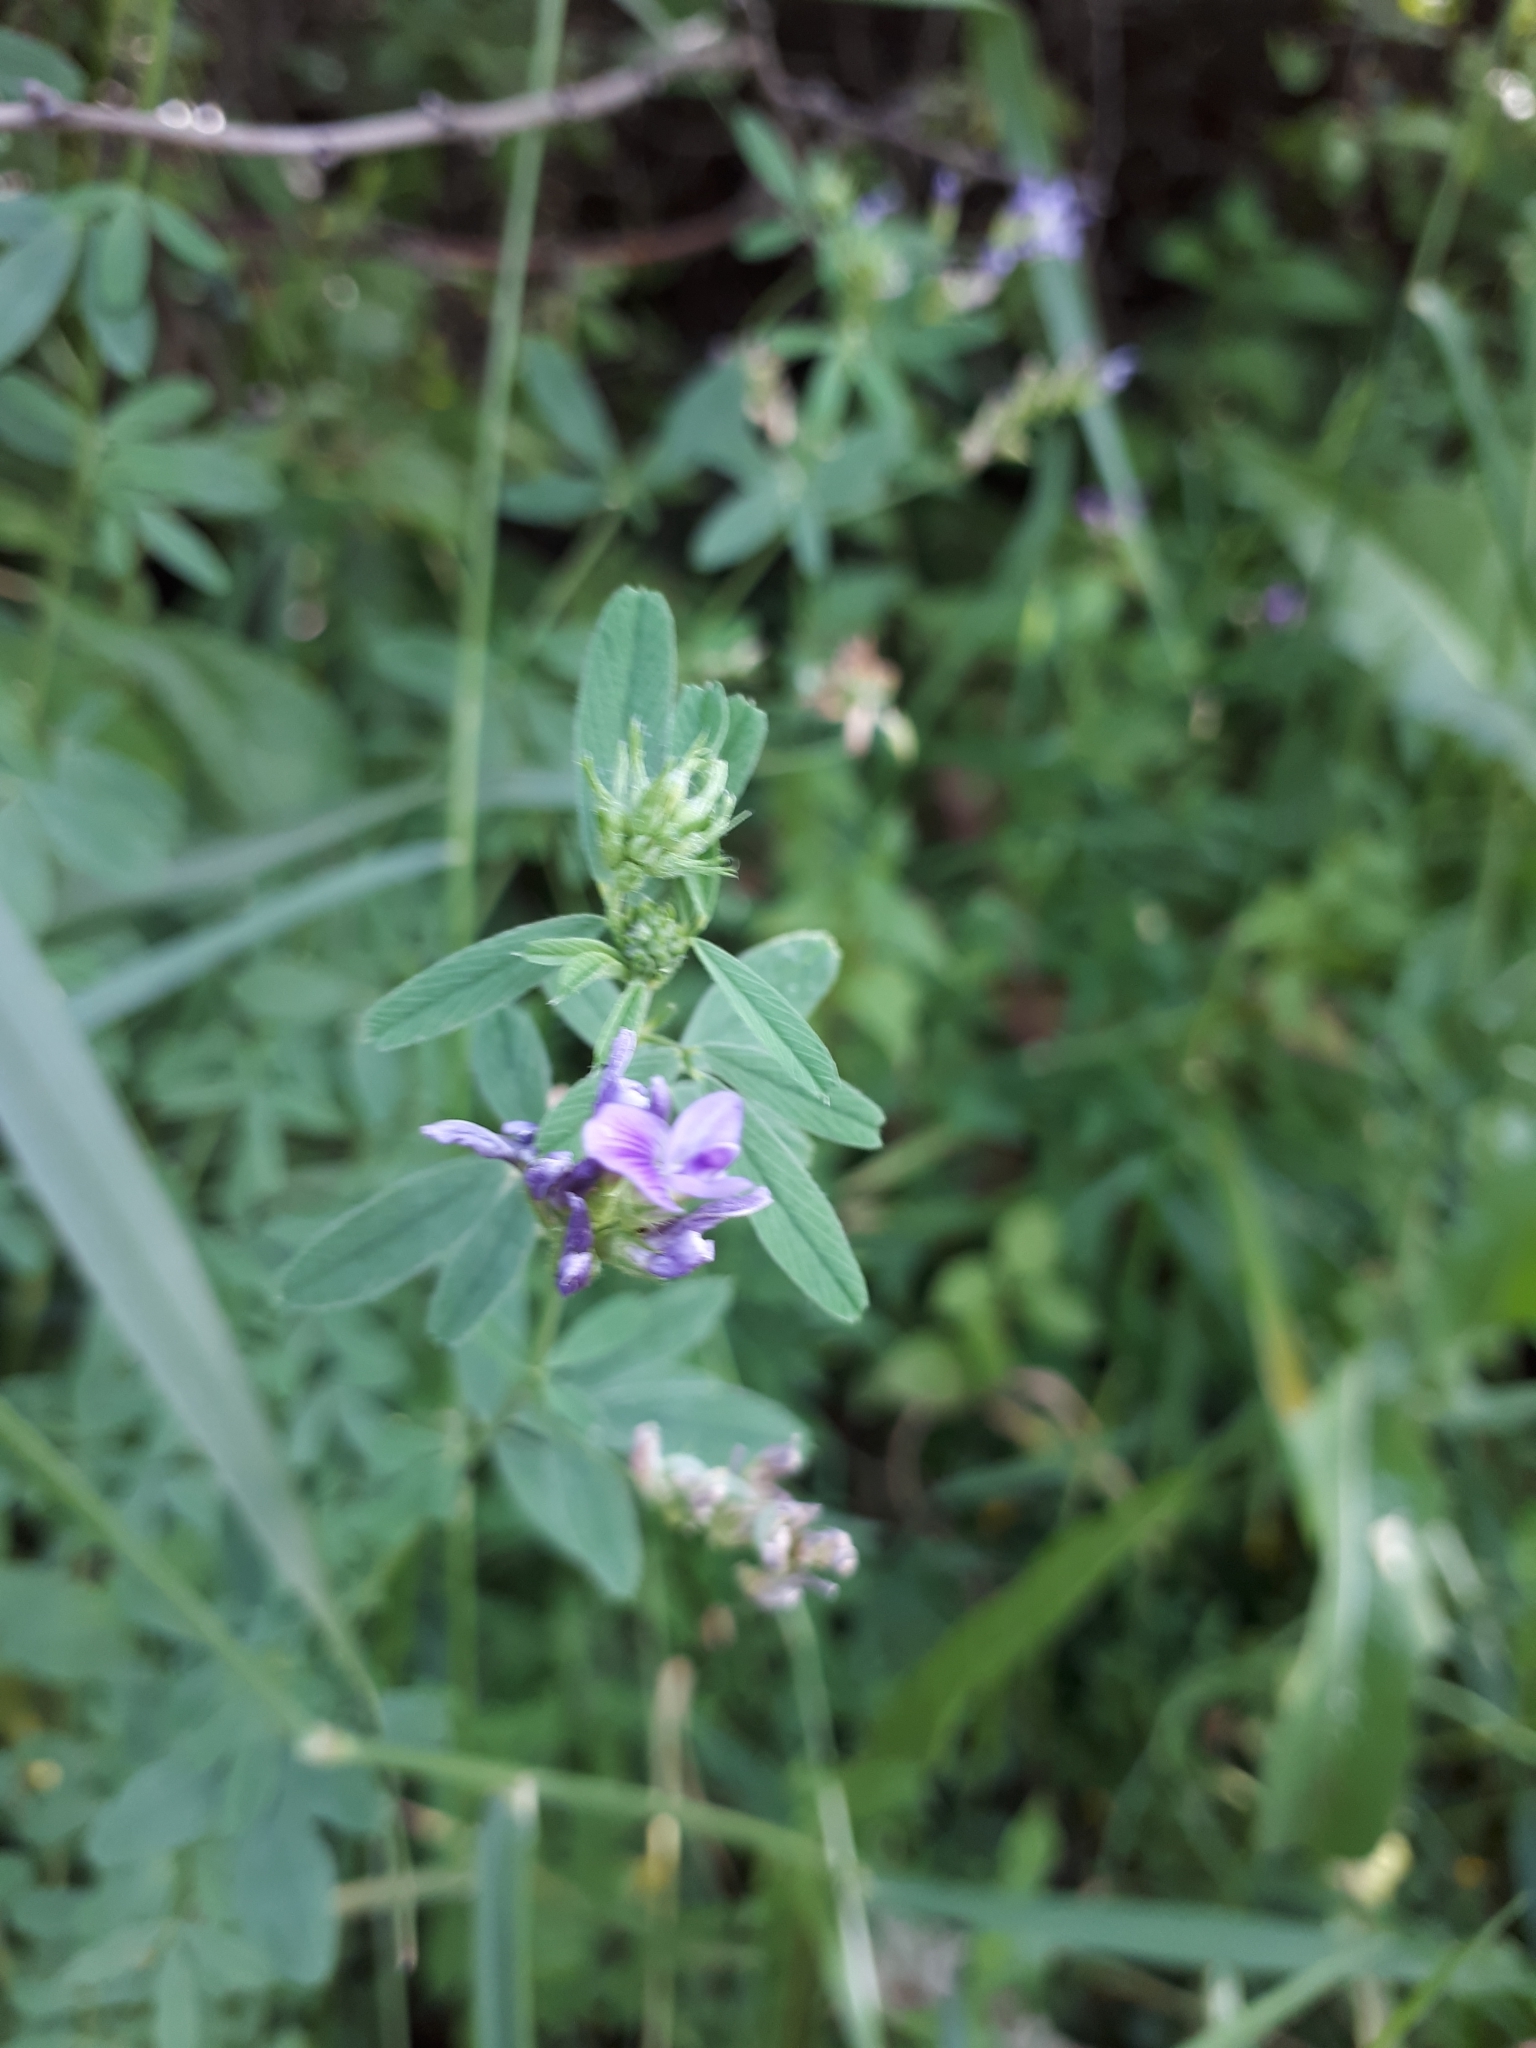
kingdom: Plantae
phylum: Tracheophyta
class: Magnoliopsida
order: Fabales
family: Fabaceae
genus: Medicago
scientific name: Medicago sativa
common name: Alfalfa
